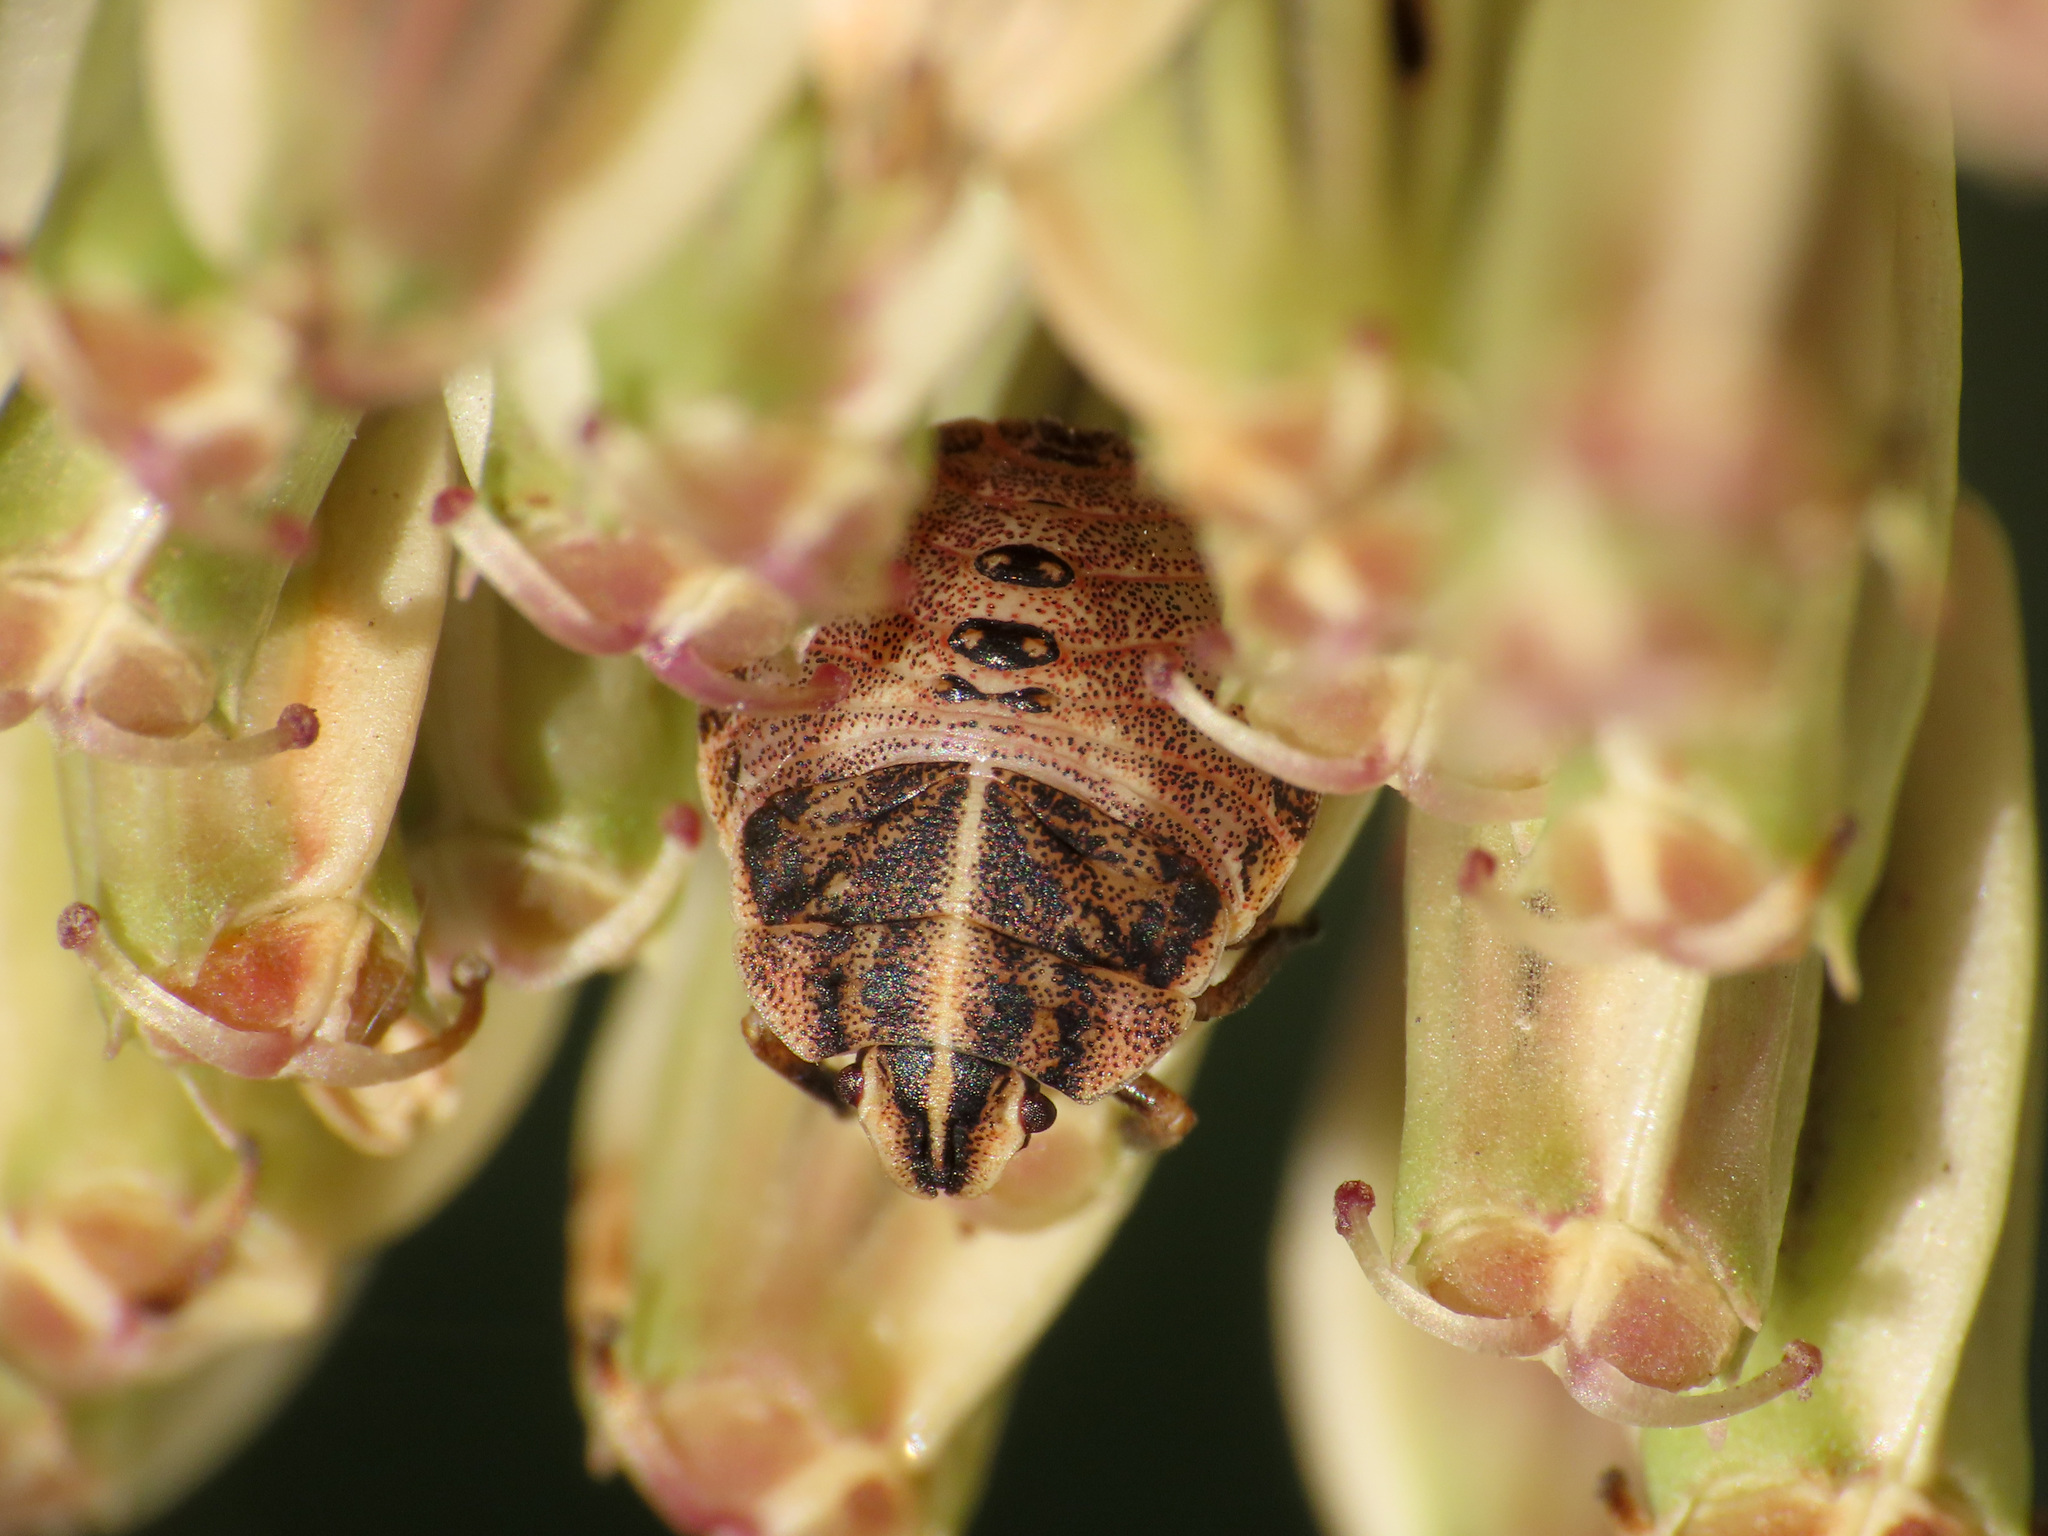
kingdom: Animalia
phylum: Arthropoda
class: Insecta
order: Hemiptera
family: Pentatomidae
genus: Graphosoma
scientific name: Graphosoma italicum
